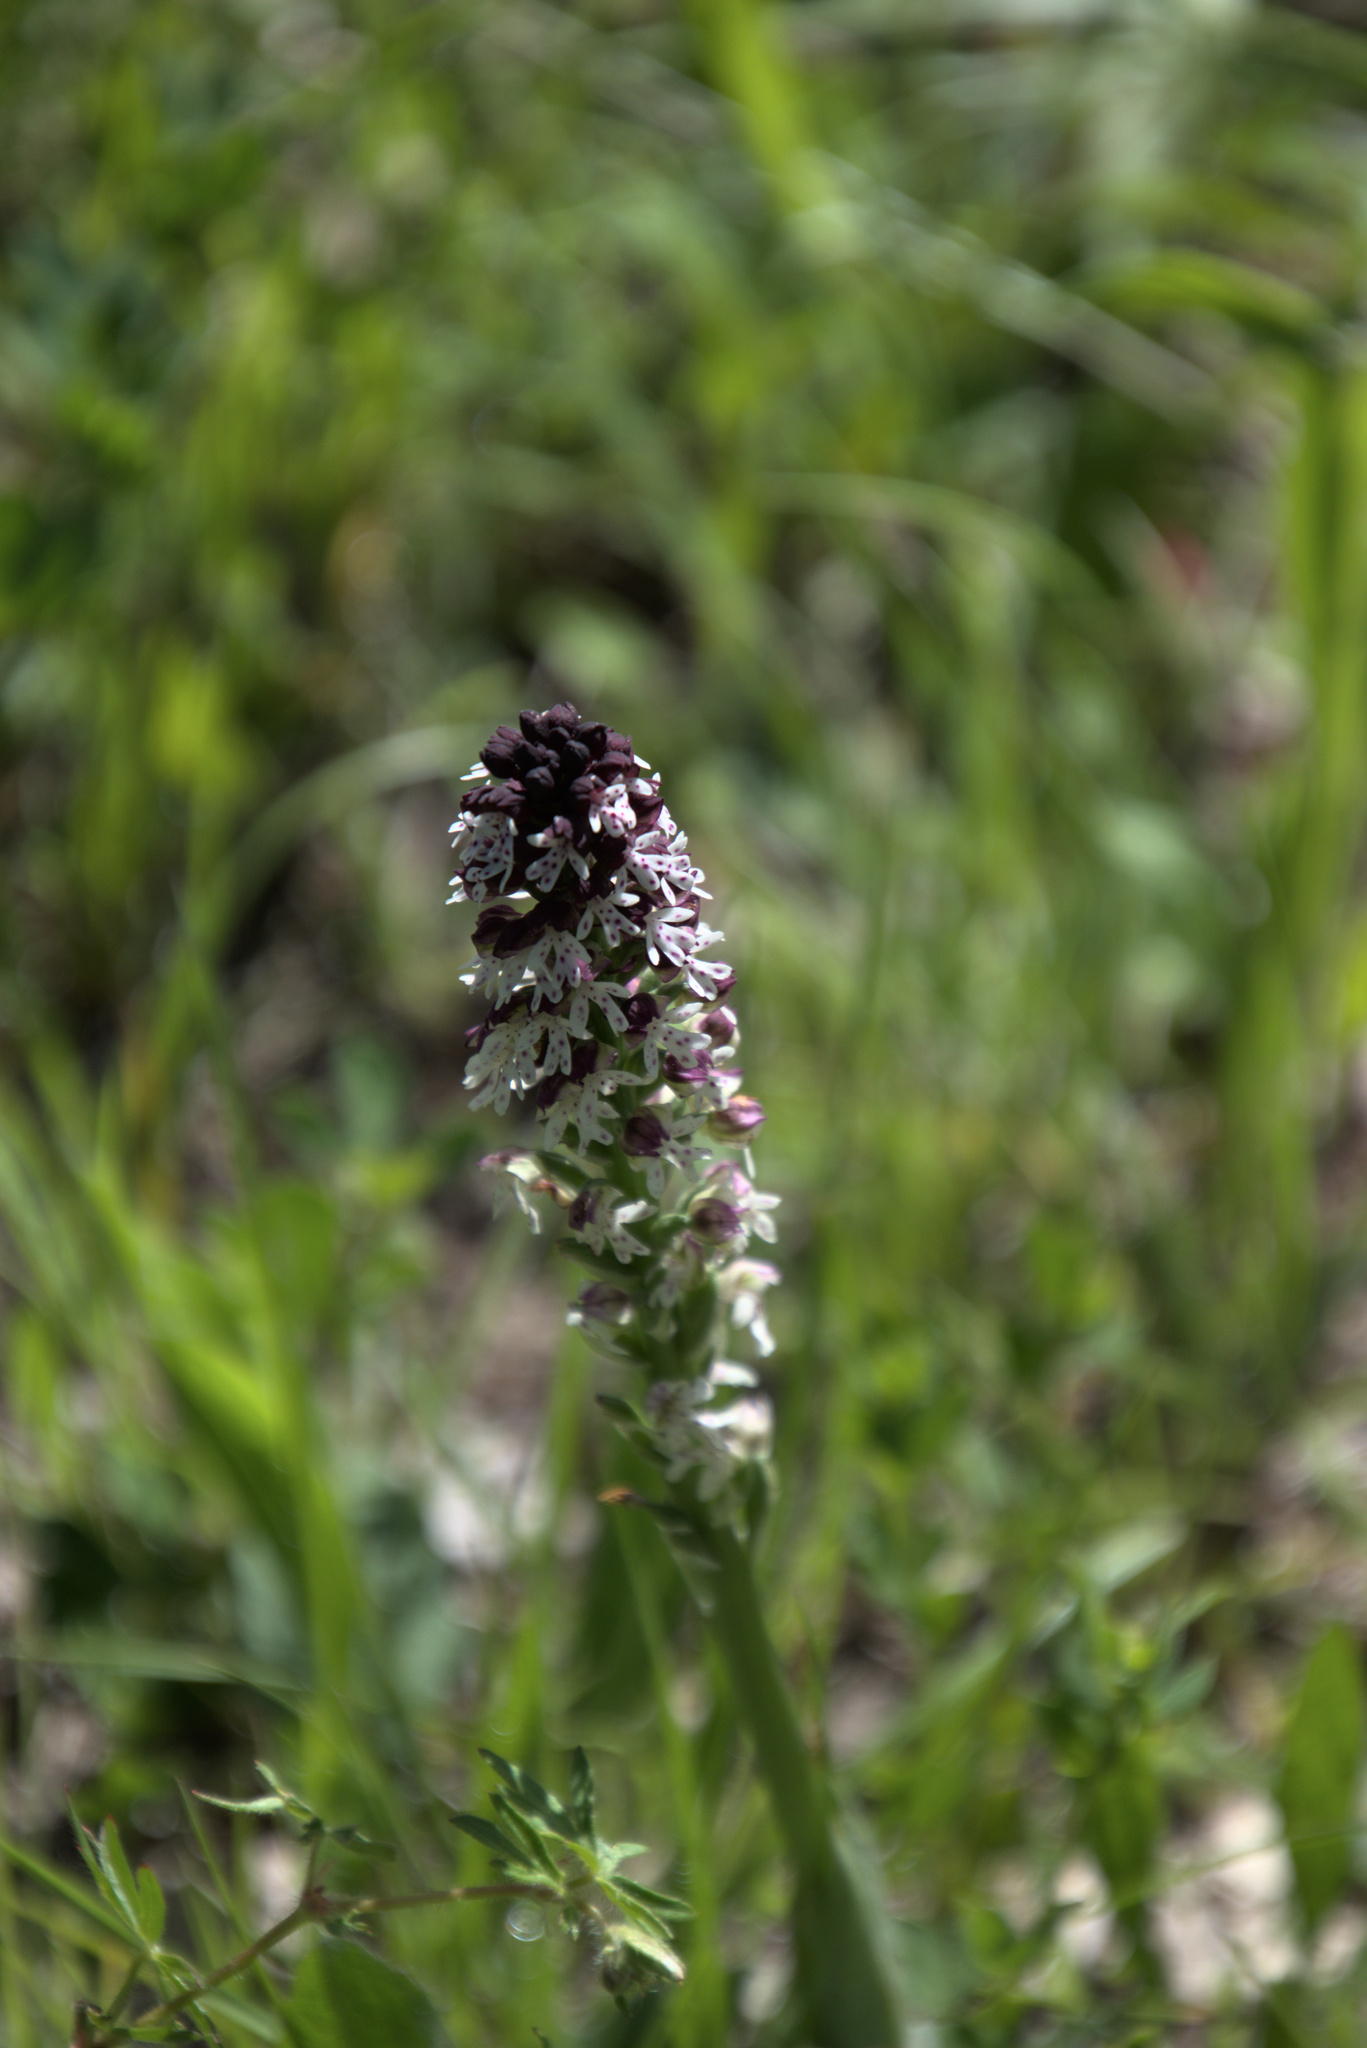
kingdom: Plantae
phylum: Tracheophyta
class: Liliopsida
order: Asparagales
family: Orchidaceae
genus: Neotinea
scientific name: Neotinea ustulata
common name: Burnt orchid
